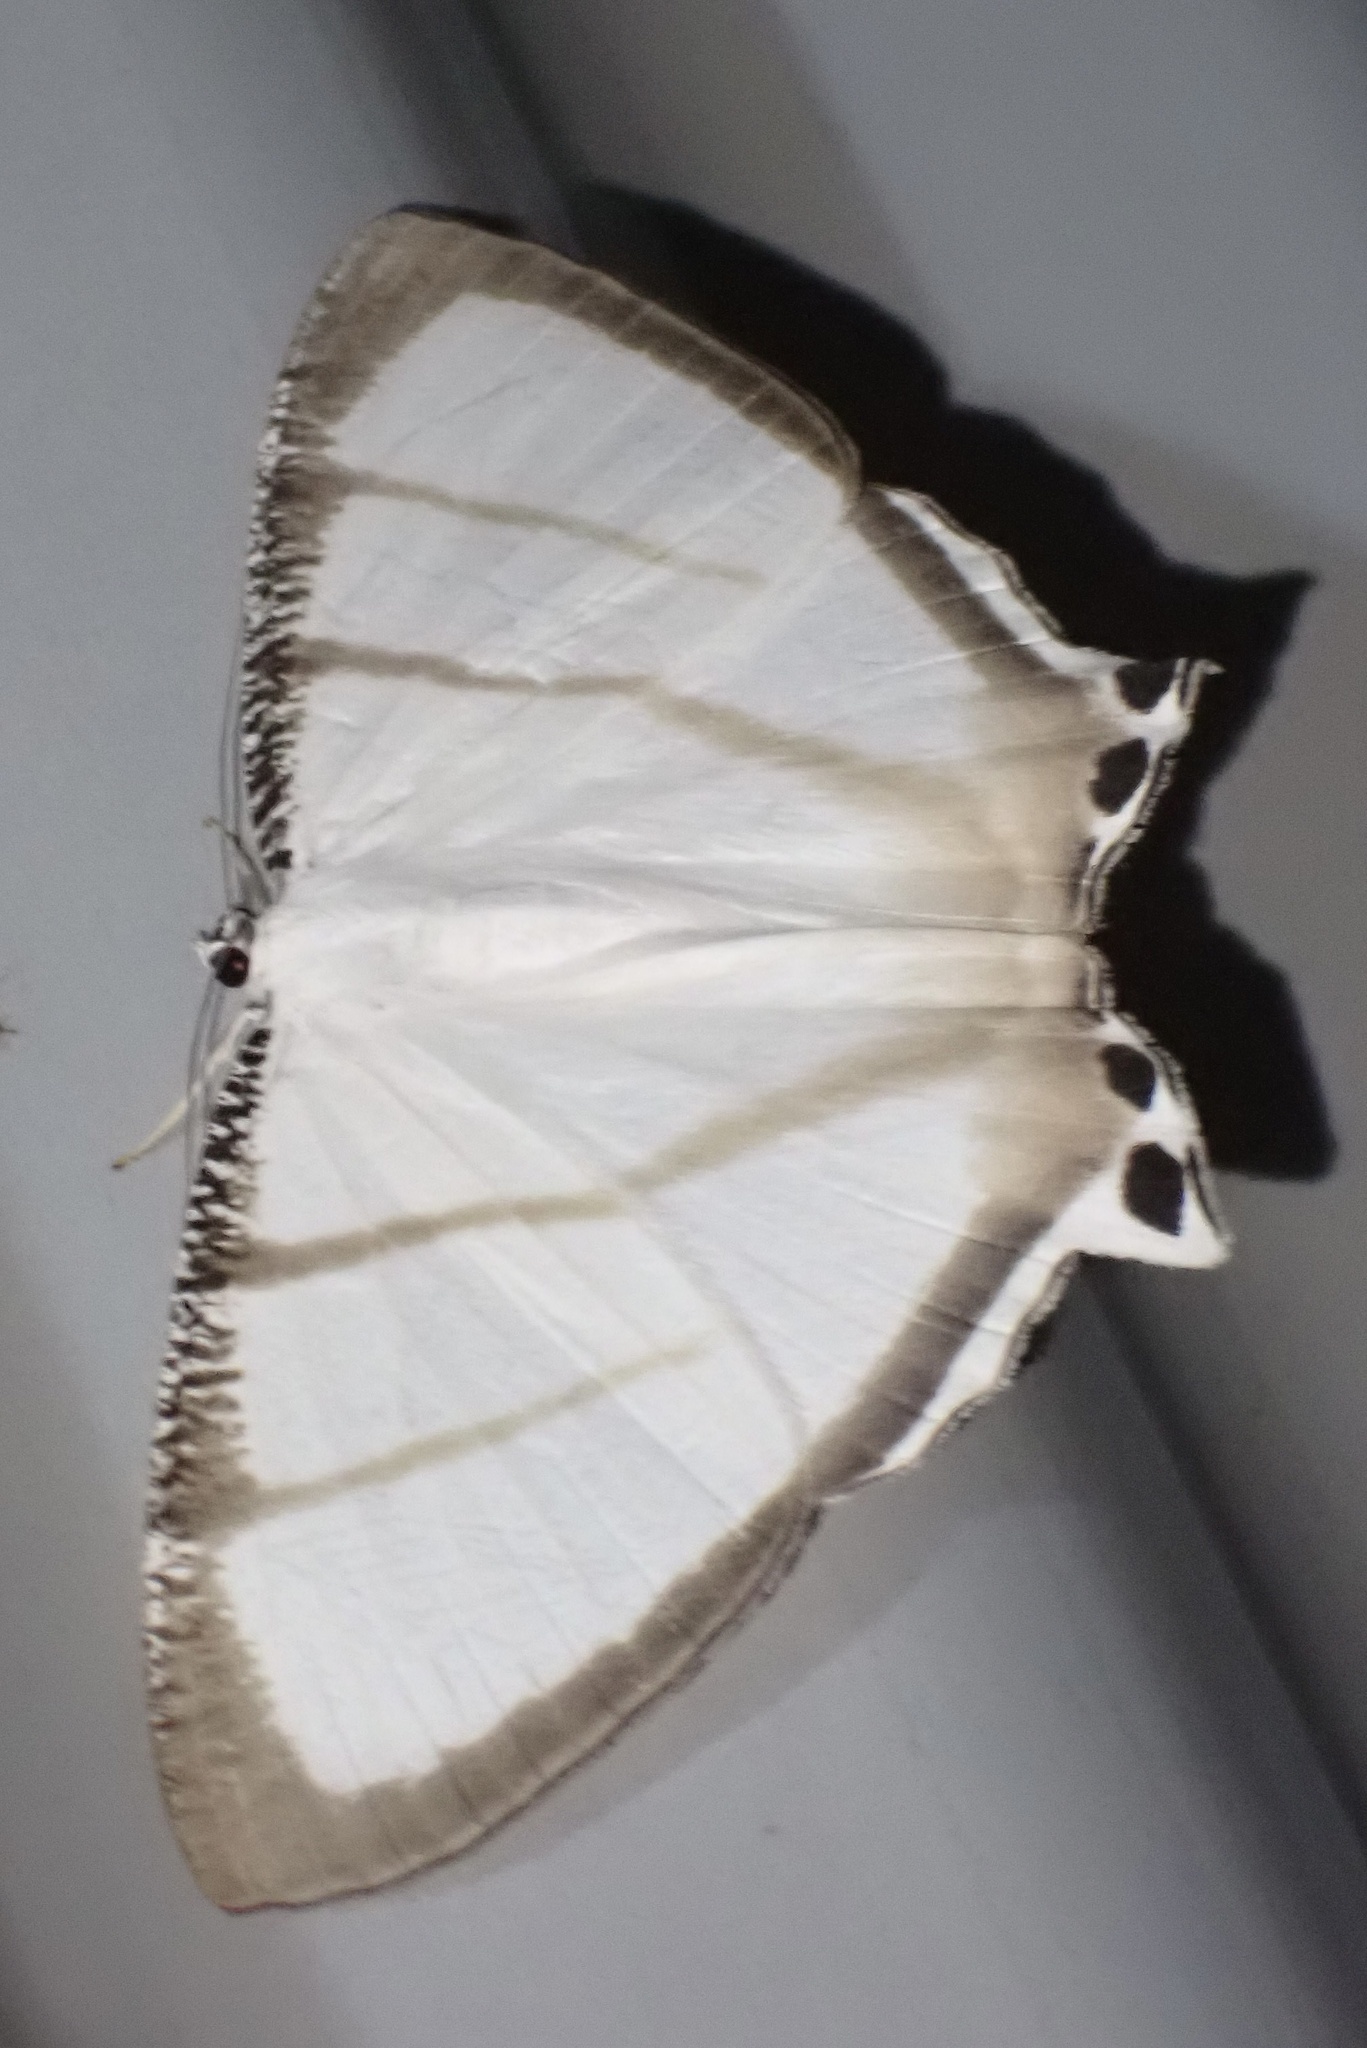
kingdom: Animalia
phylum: Arthropoda
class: Insecta
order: Lepidoptera
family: Uraniidae
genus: Cyphura
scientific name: Cyphura maxima
